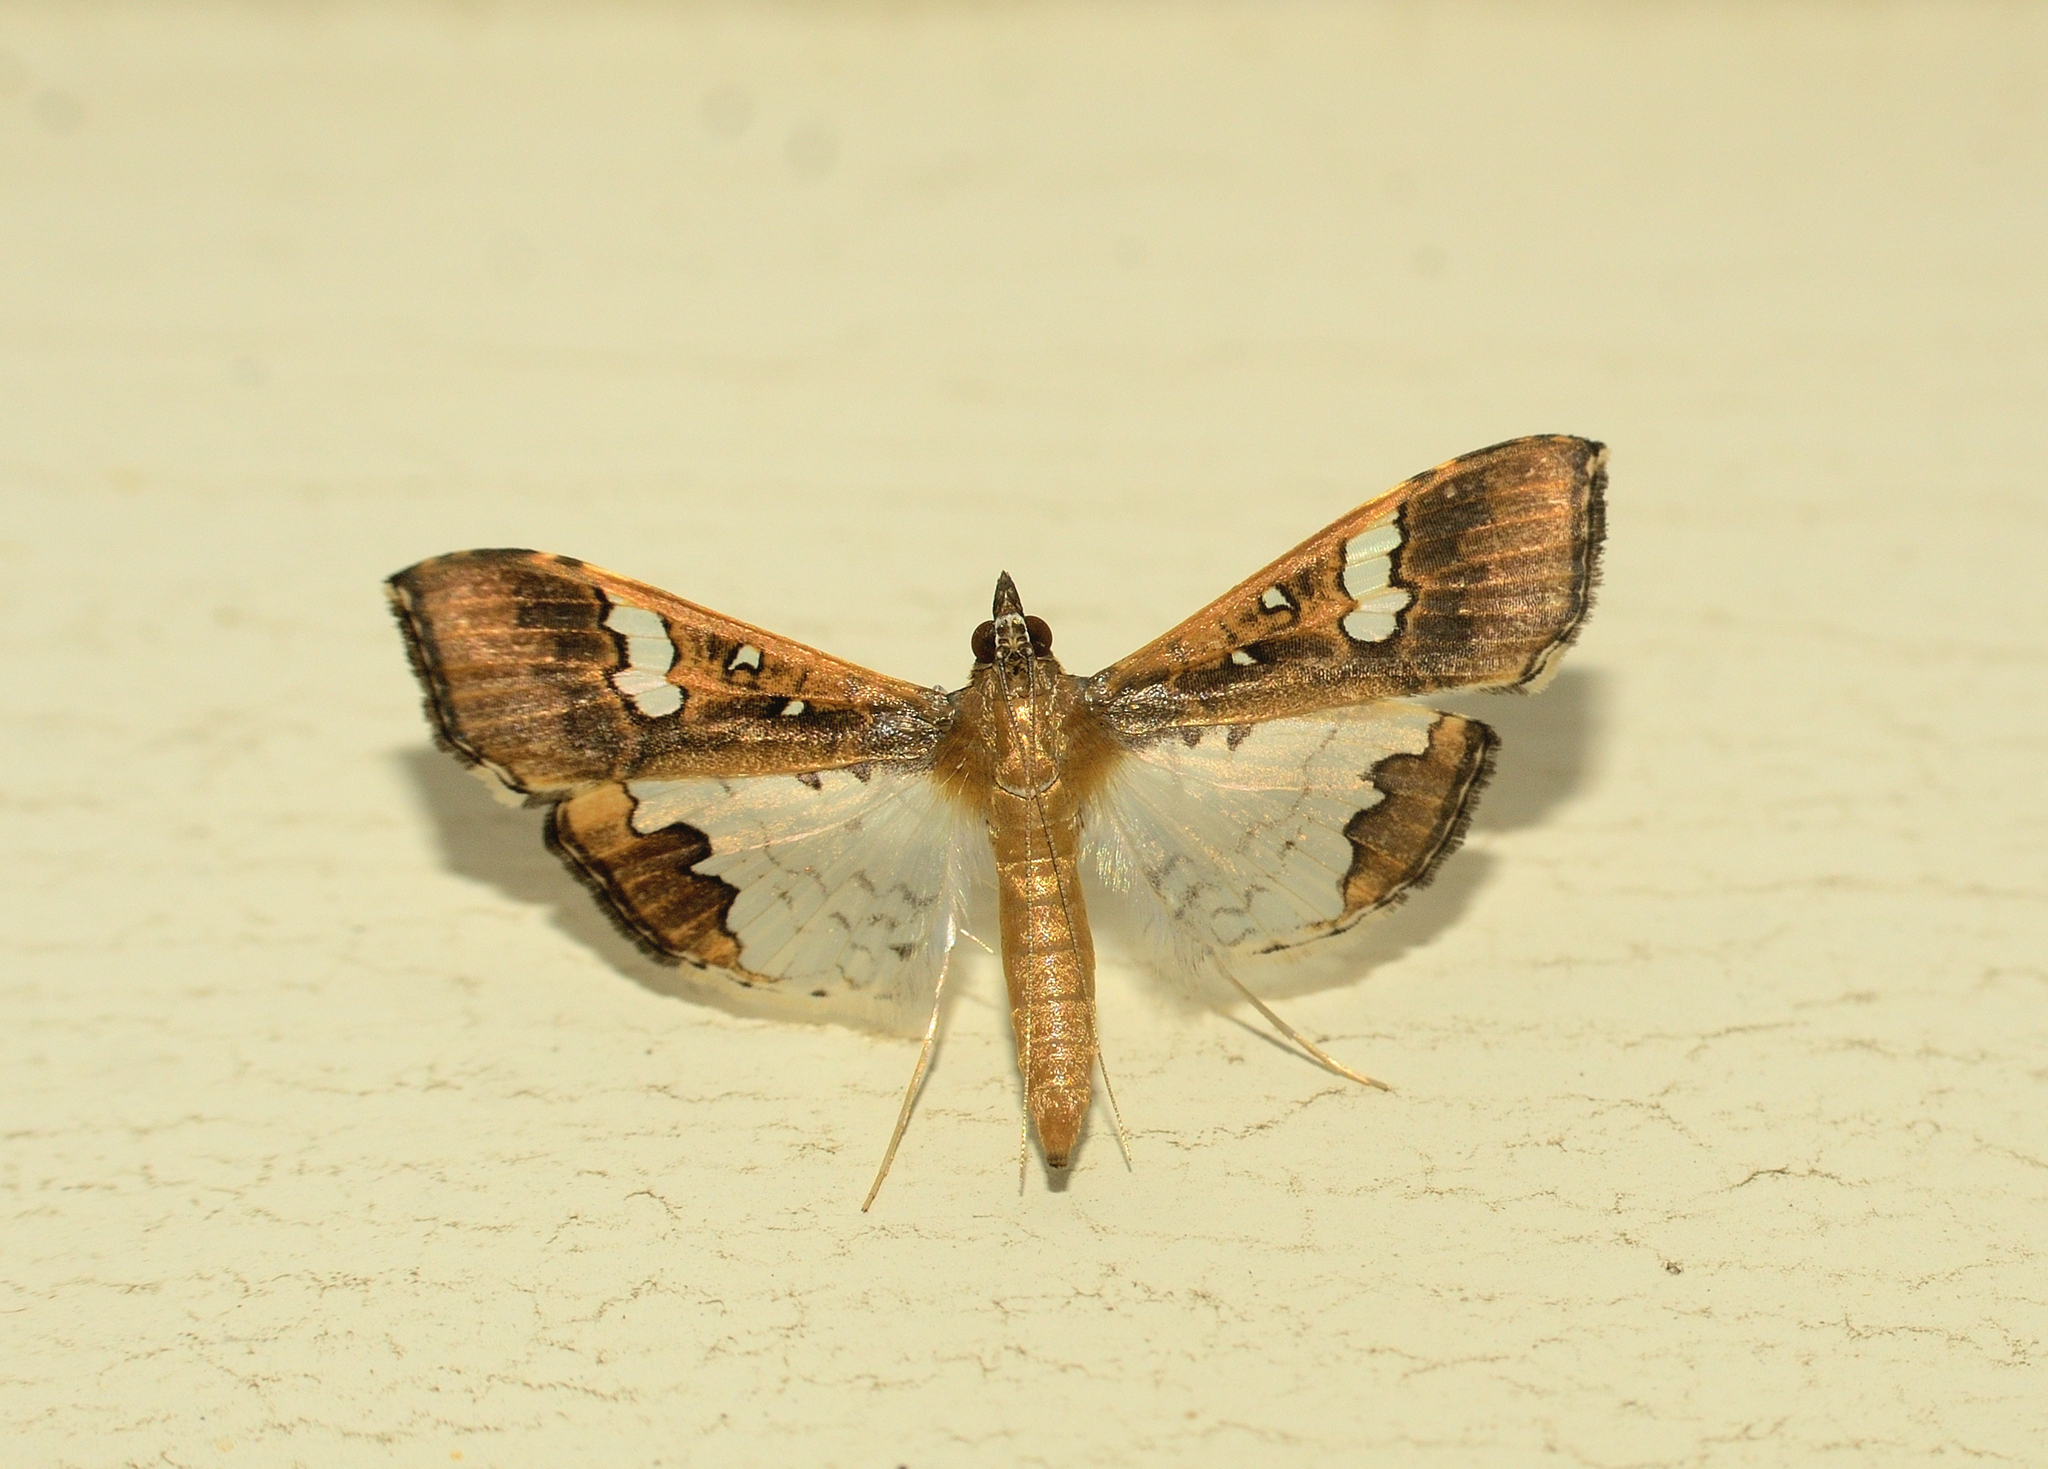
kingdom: Animalia
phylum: Arthropoda
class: Insecta
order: Lepidoptera
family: Crambidae
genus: Maruca
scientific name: Maruca vitrata
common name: Maruca pod borer
